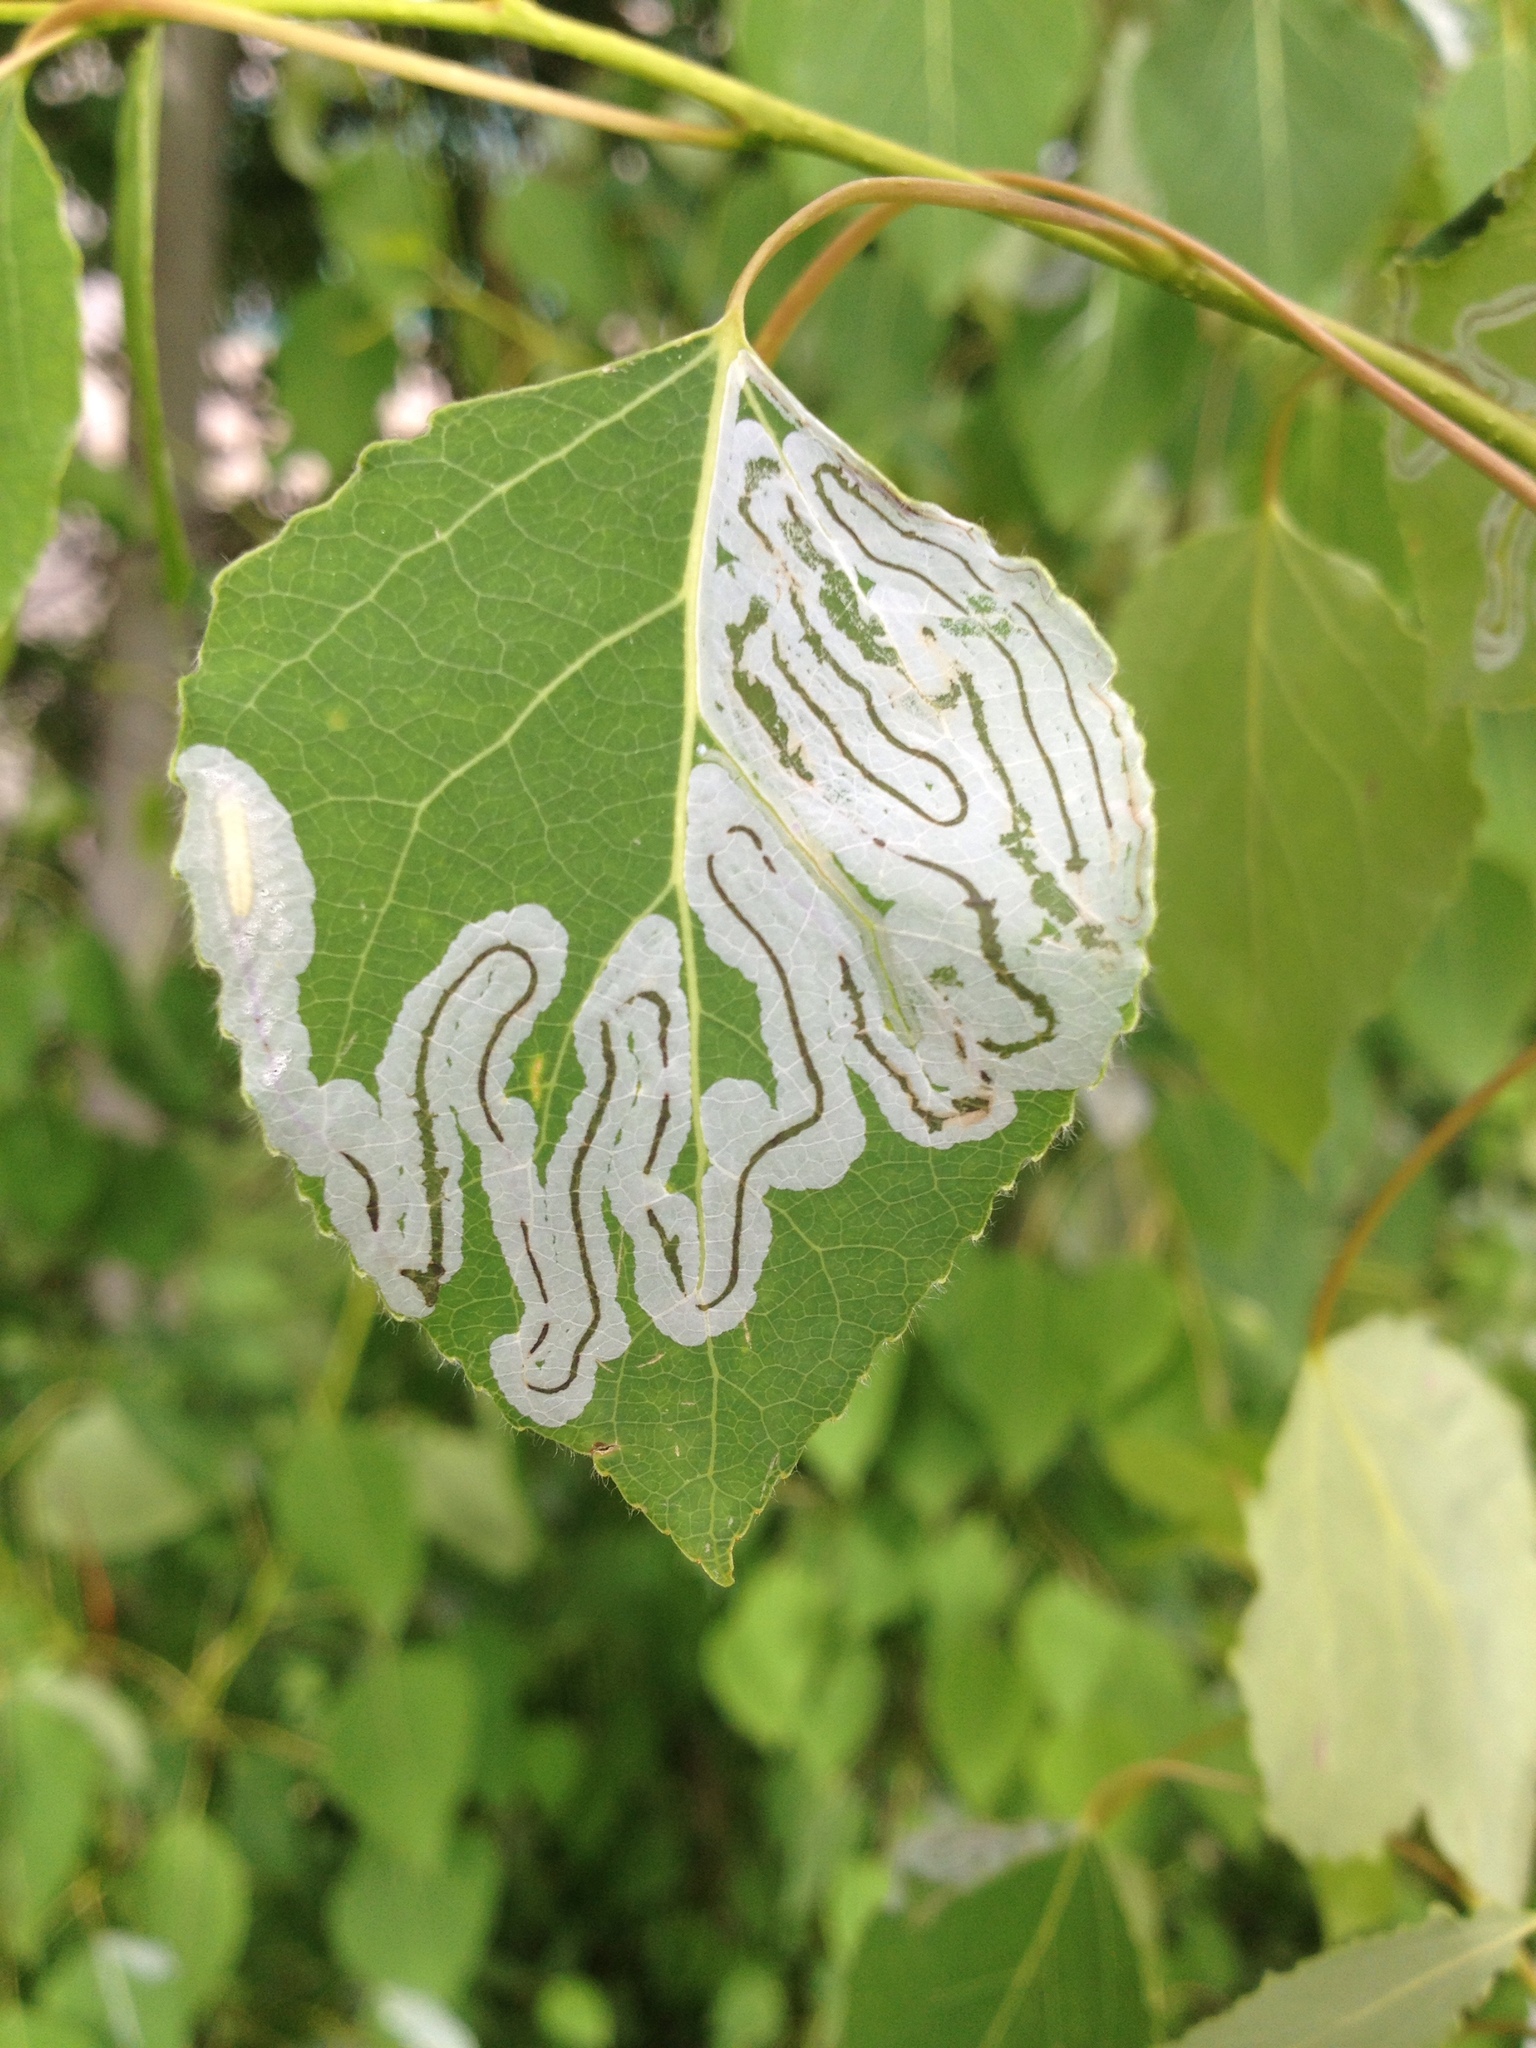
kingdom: Animalia
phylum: Arthropoda
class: Insecta
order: Lepidoptera
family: Gracillariidae
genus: Phyllocnistis
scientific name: Phyllocnistis populiella
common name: Aspen serpentine leafminer moth
